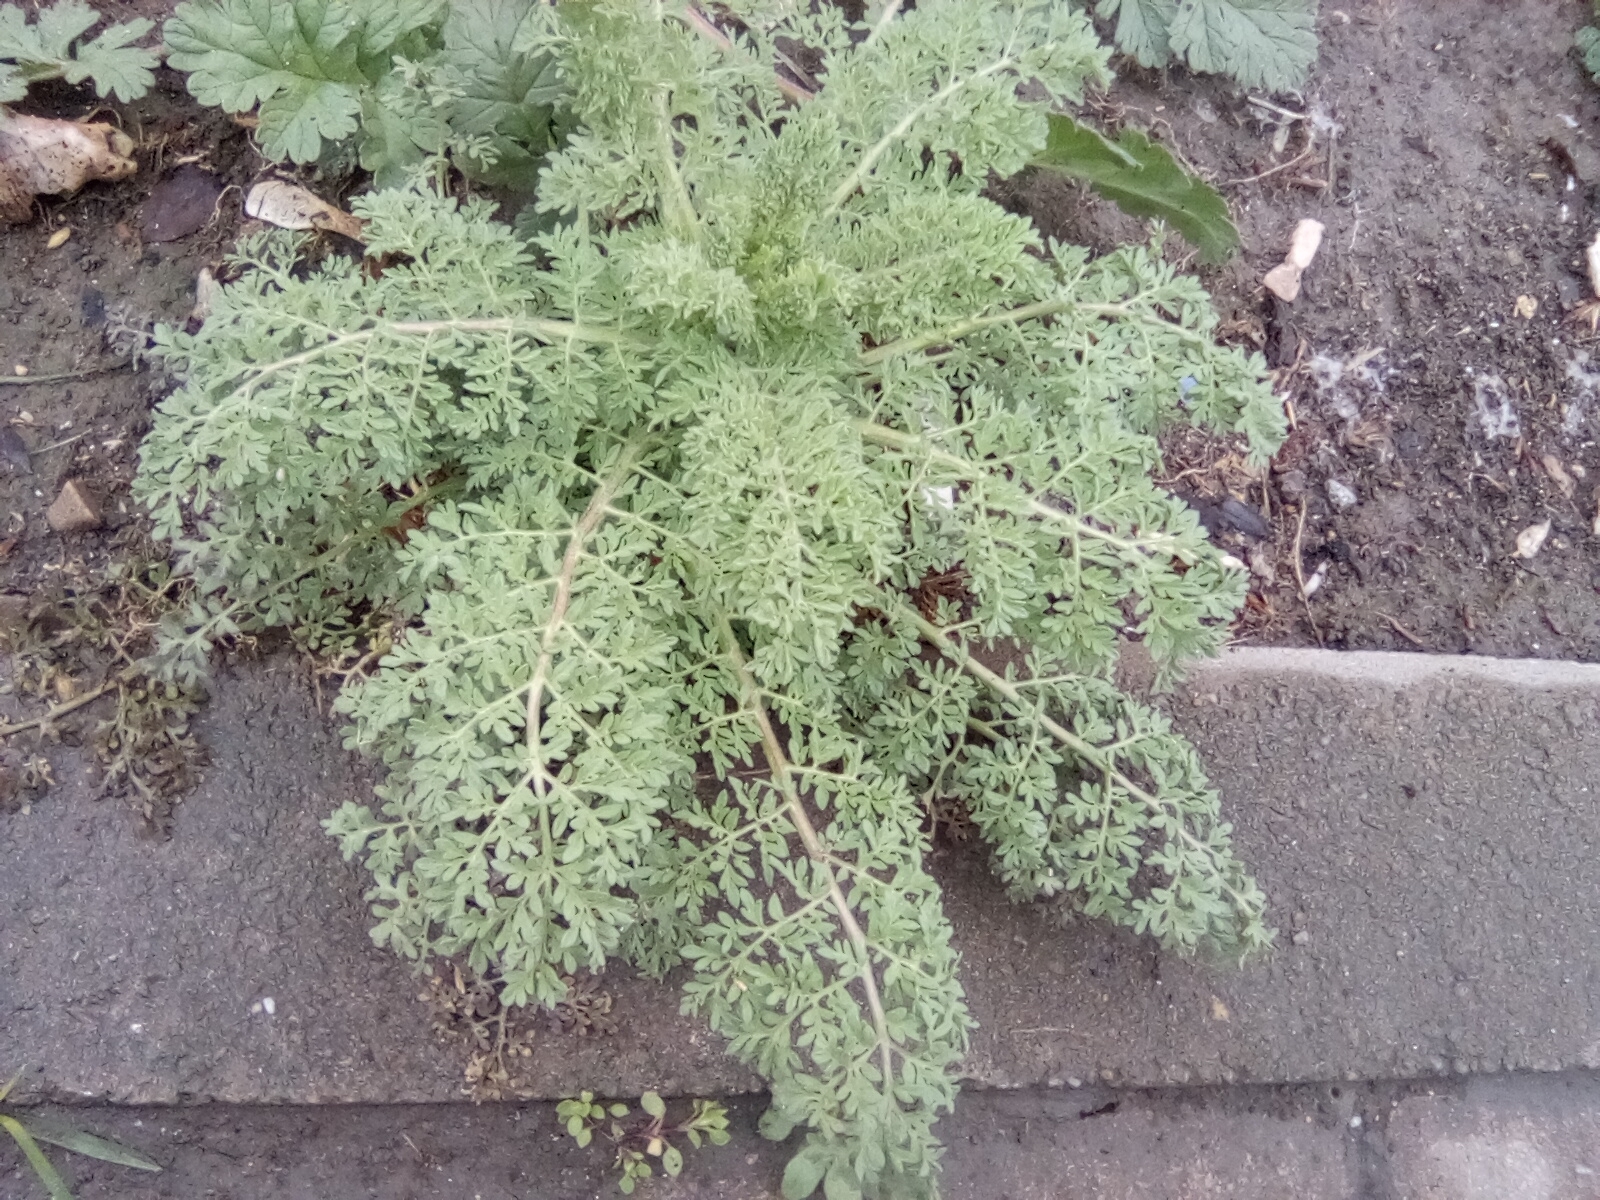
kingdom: Plantae
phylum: Tracheophyta
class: Magnoliopsida
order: Brassicales
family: Brassicaceae
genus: Descurainia
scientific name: Descurainia sophia
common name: Flixweed
